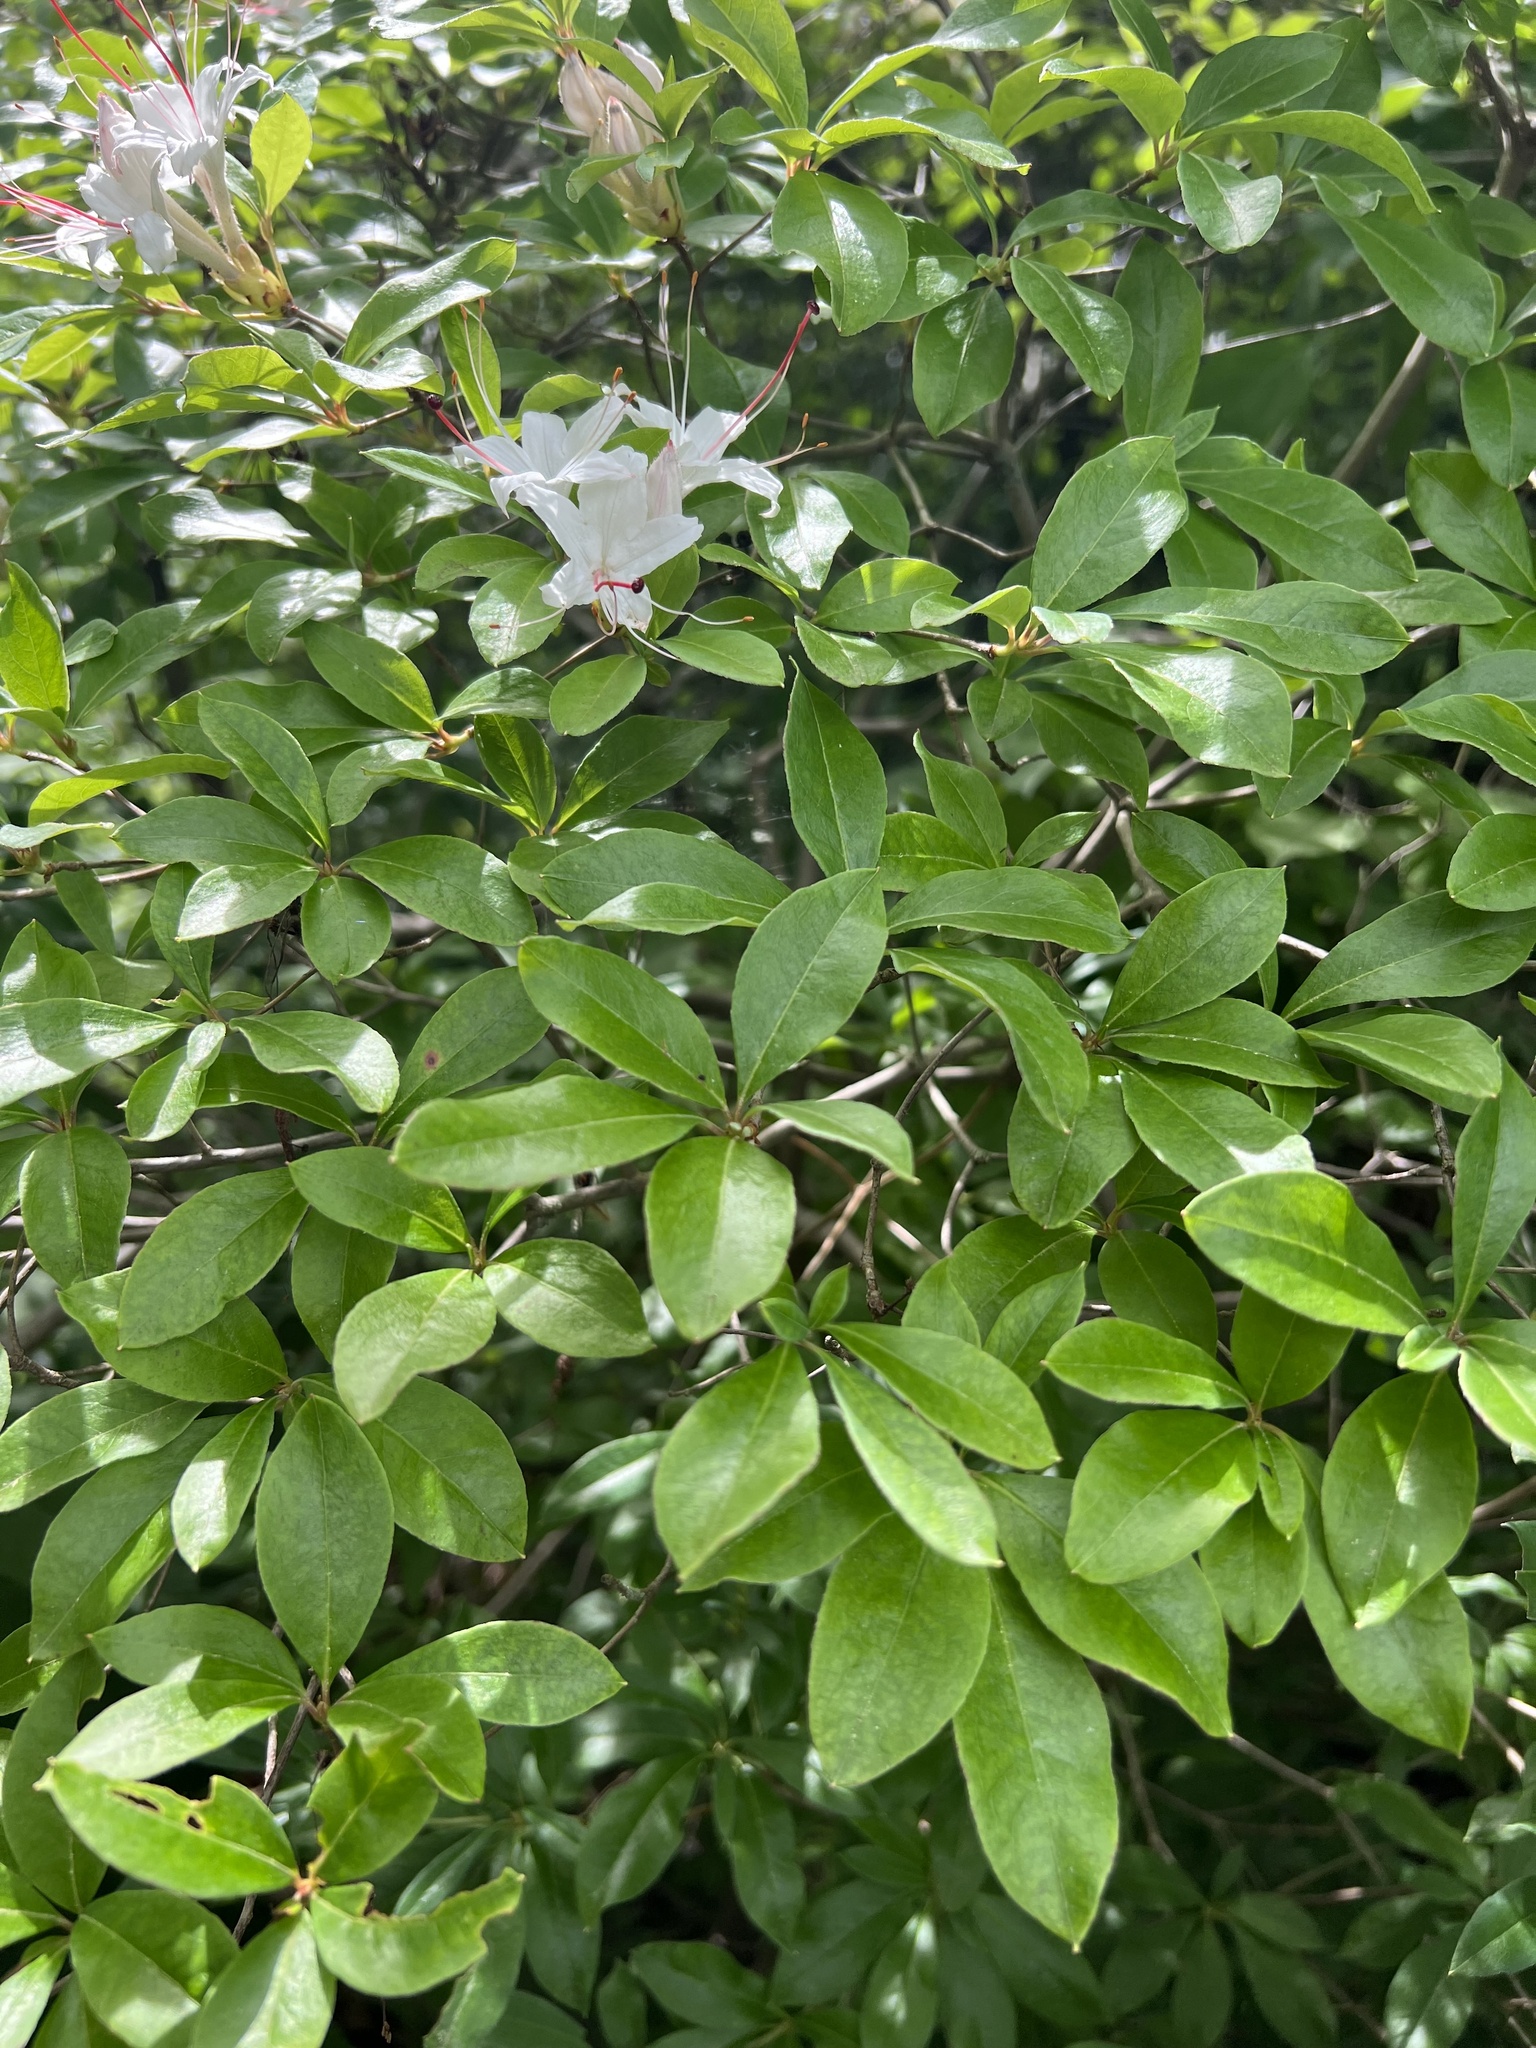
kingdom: Plantae
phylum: Tracheophyta
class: Magnoliopsida
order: Ericales
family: Ericaceae
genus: Rhododendron
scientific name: Rhododendron viscosum
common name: Clammy azalea
